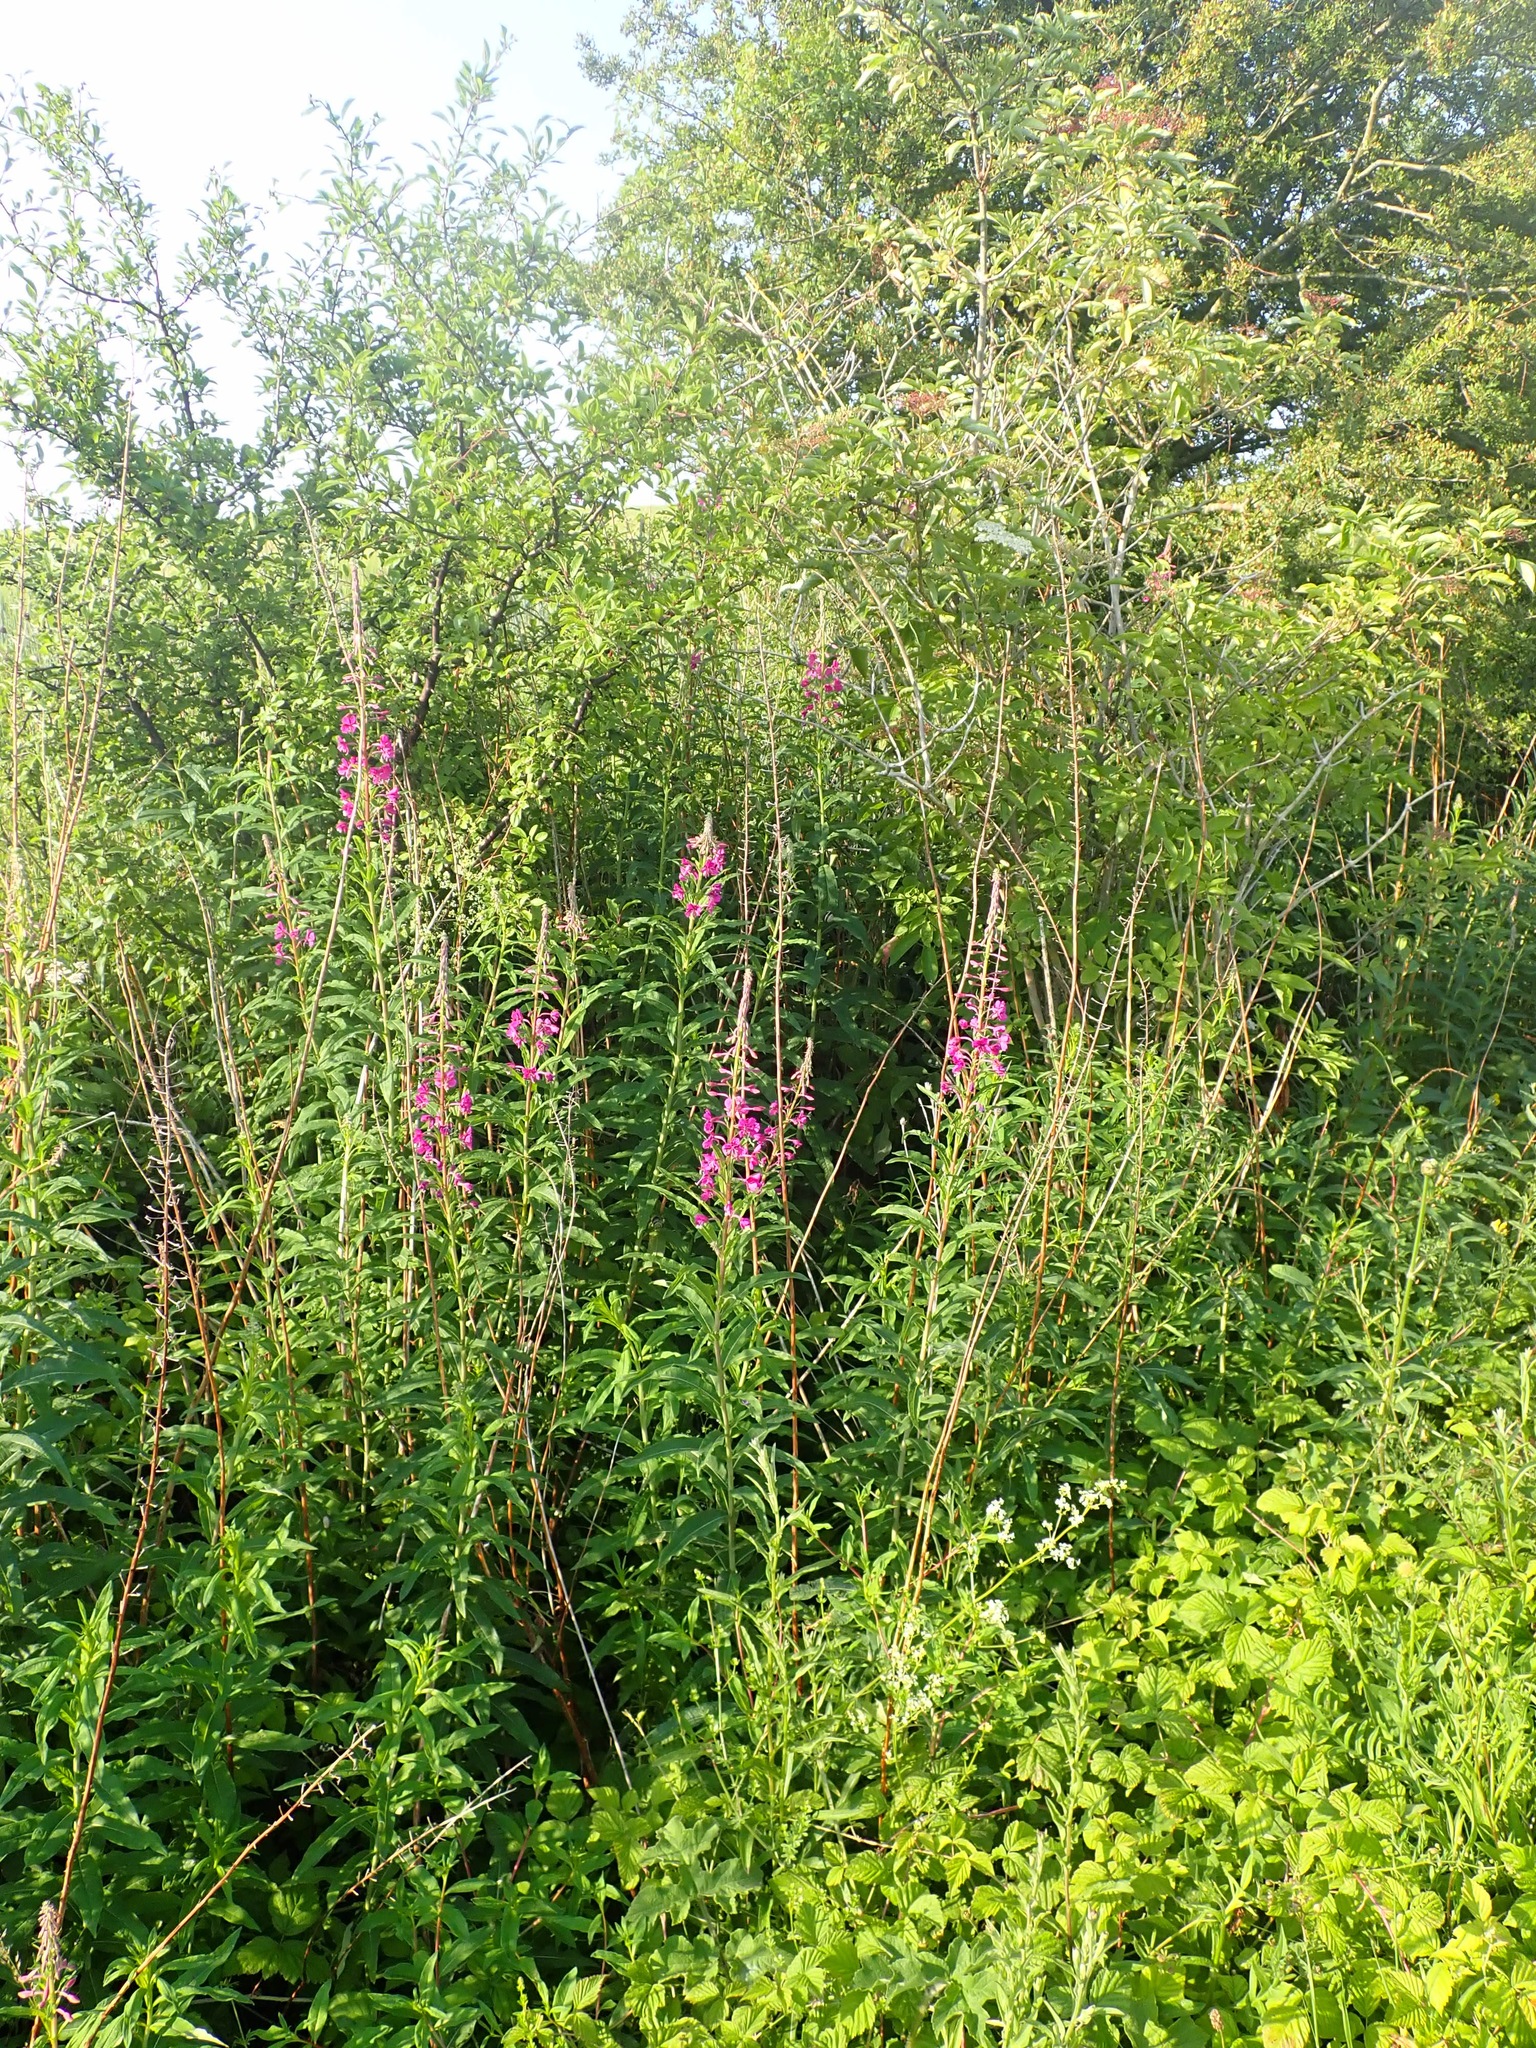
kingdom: Plantae
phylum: Tracheophyta
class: Magnoliopsida
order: Myrtales
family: Onagraceae
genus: Chamaenerion
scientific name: Chamaenerion angustifolium
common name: Fireweed
